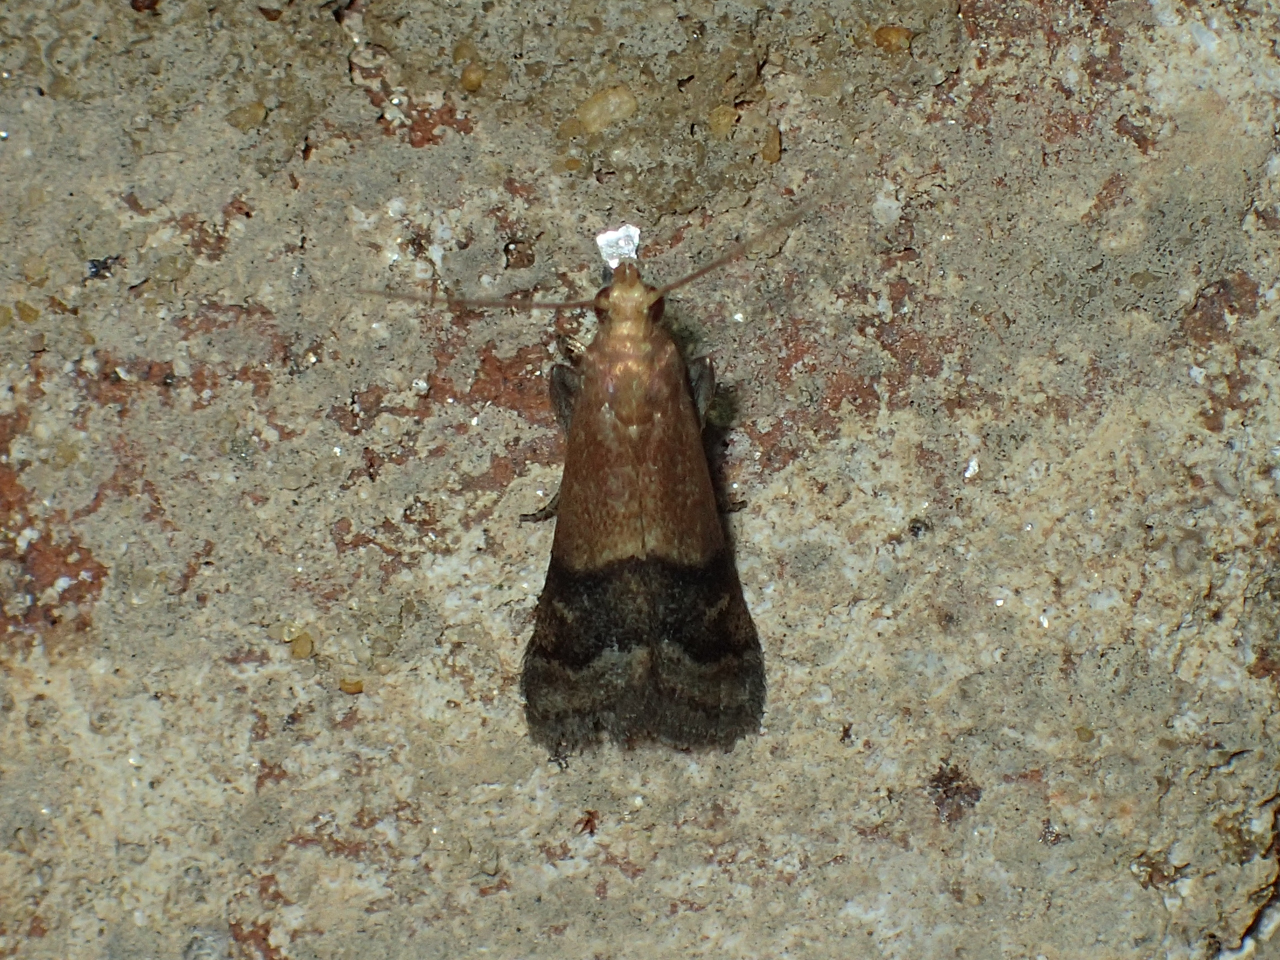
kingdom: Animalia
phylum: Arthropoda
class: Insecta
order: Lepidoptera
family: Pyralidae
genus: Eulogia
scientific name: Eulogia ochrifrontella
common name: Broad-banded eulogia moth
